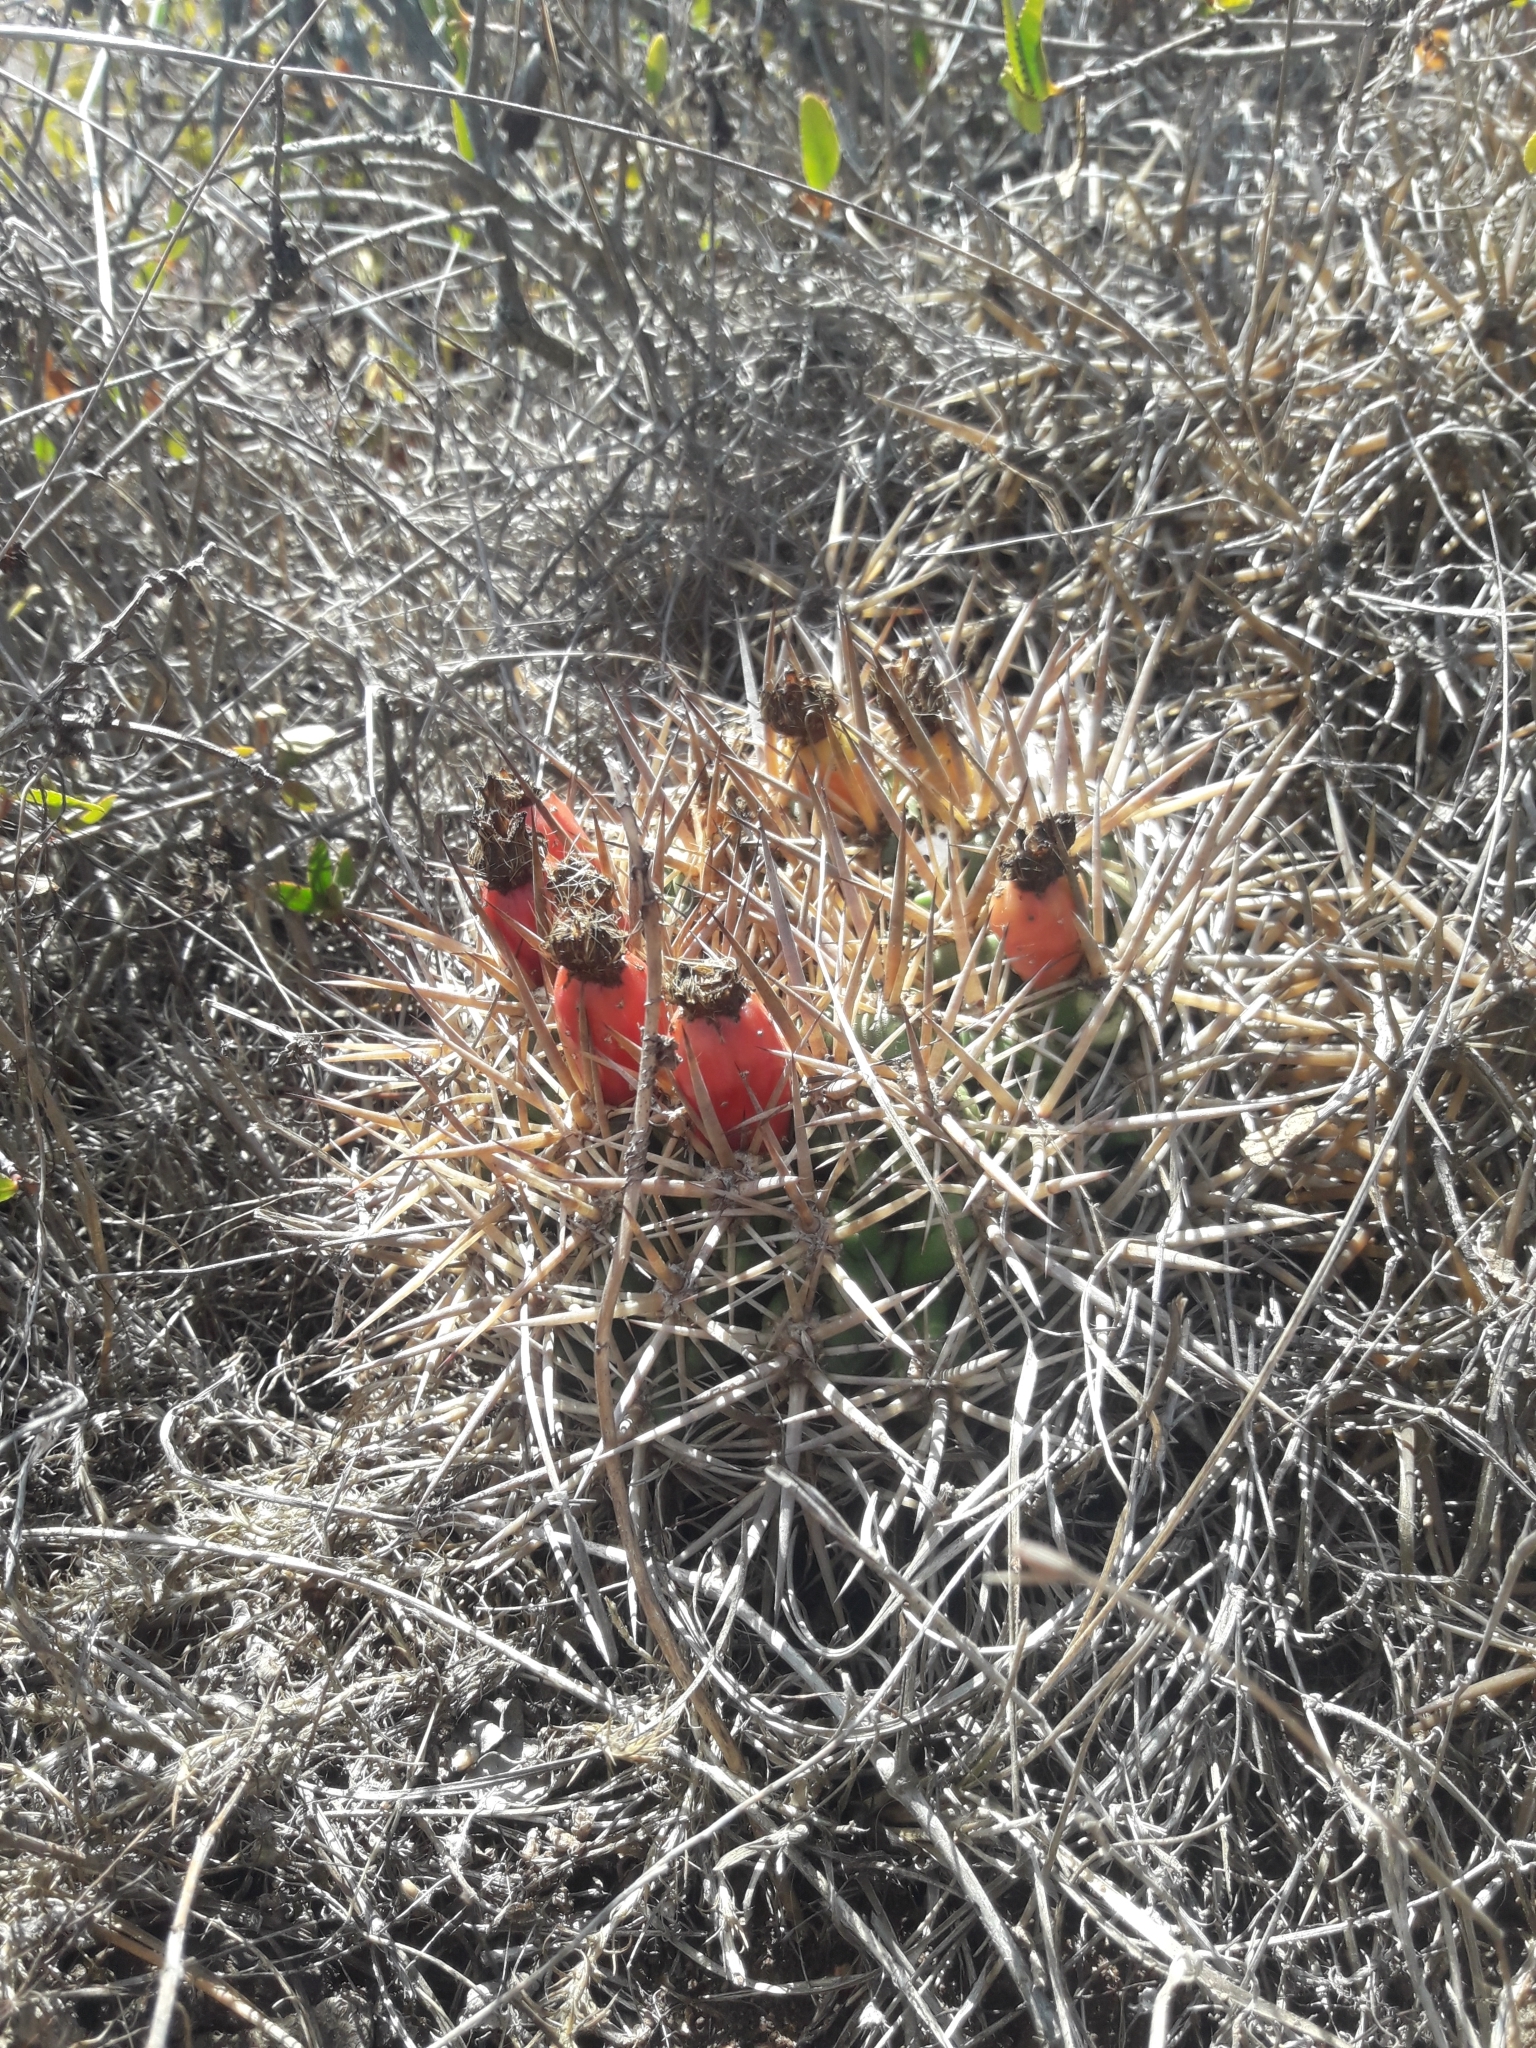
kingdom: Plantae
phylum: Tracheophyta
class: Magnoliopsida
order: Caryophyllales
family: Cactaceae
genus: Eriosyce
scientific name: Eriosyce
